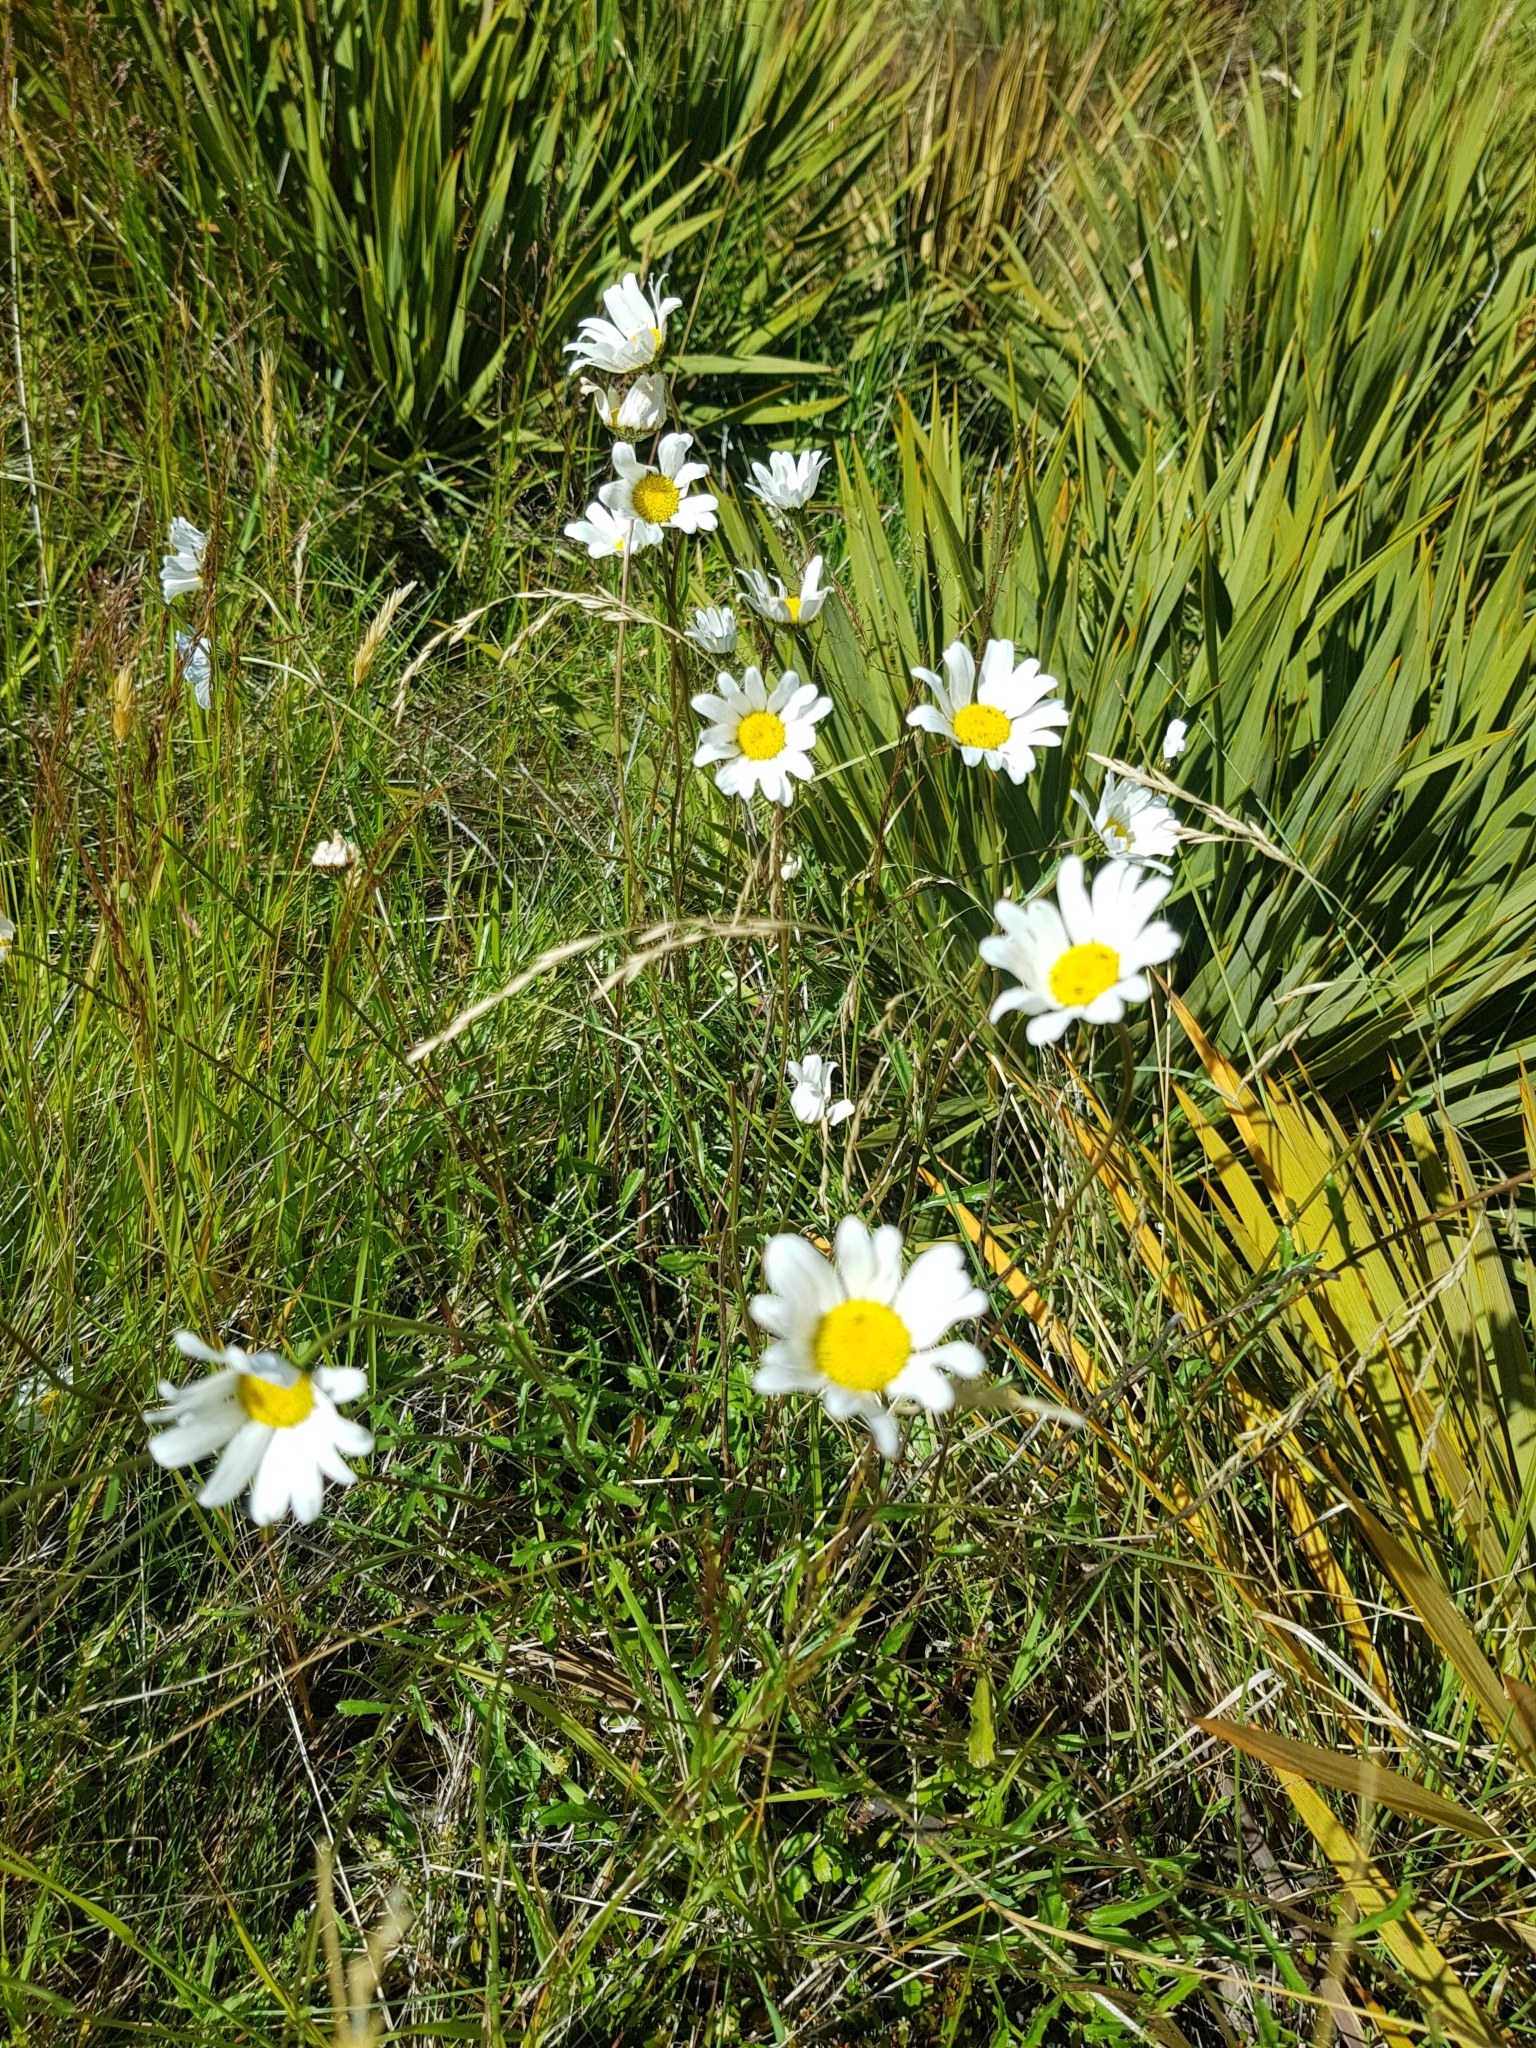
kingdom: Plantae
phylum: Tracheophyta
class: Magnoliopsida
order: Asterales
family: Asteraceae
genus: Leucanthemum
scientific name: Leucanthemum vulgare
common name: Oxeye daisy
